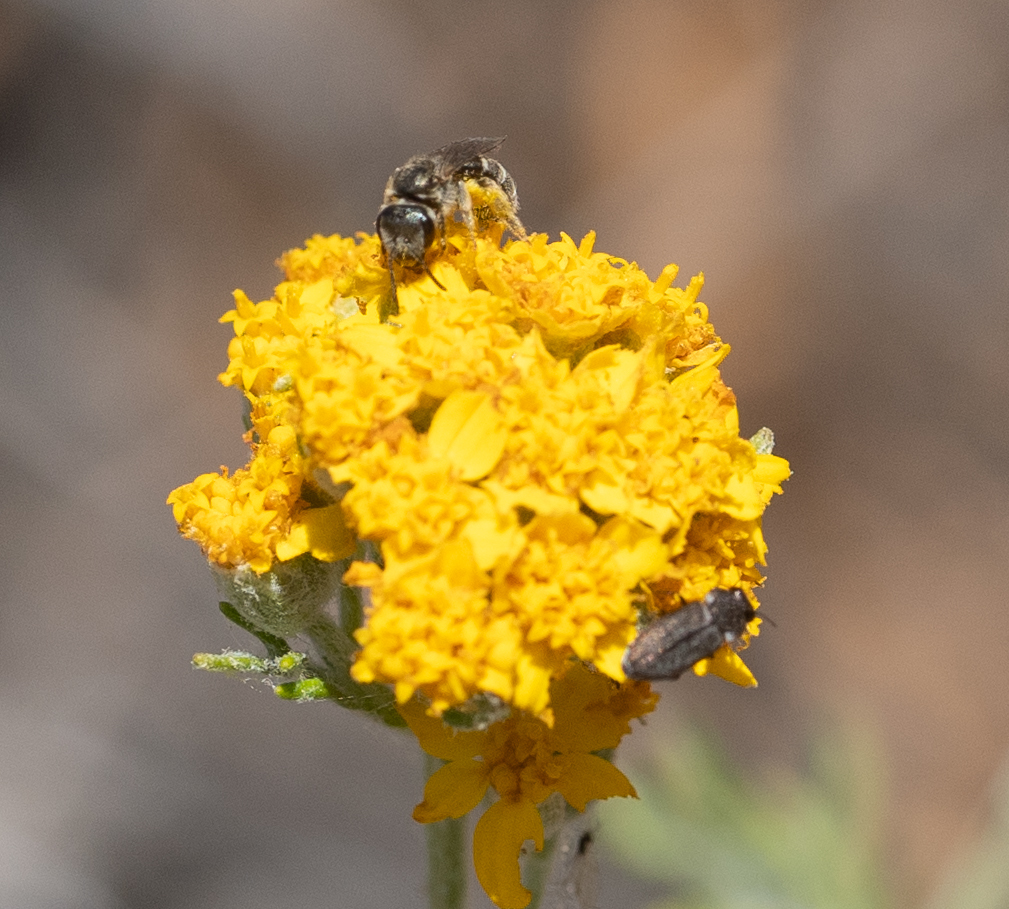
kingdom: Animalia
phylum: Arthropoda
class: Insecta
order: Hymenoptera
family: Halictidae
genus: Halictus
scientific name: Halictus tripartitus
